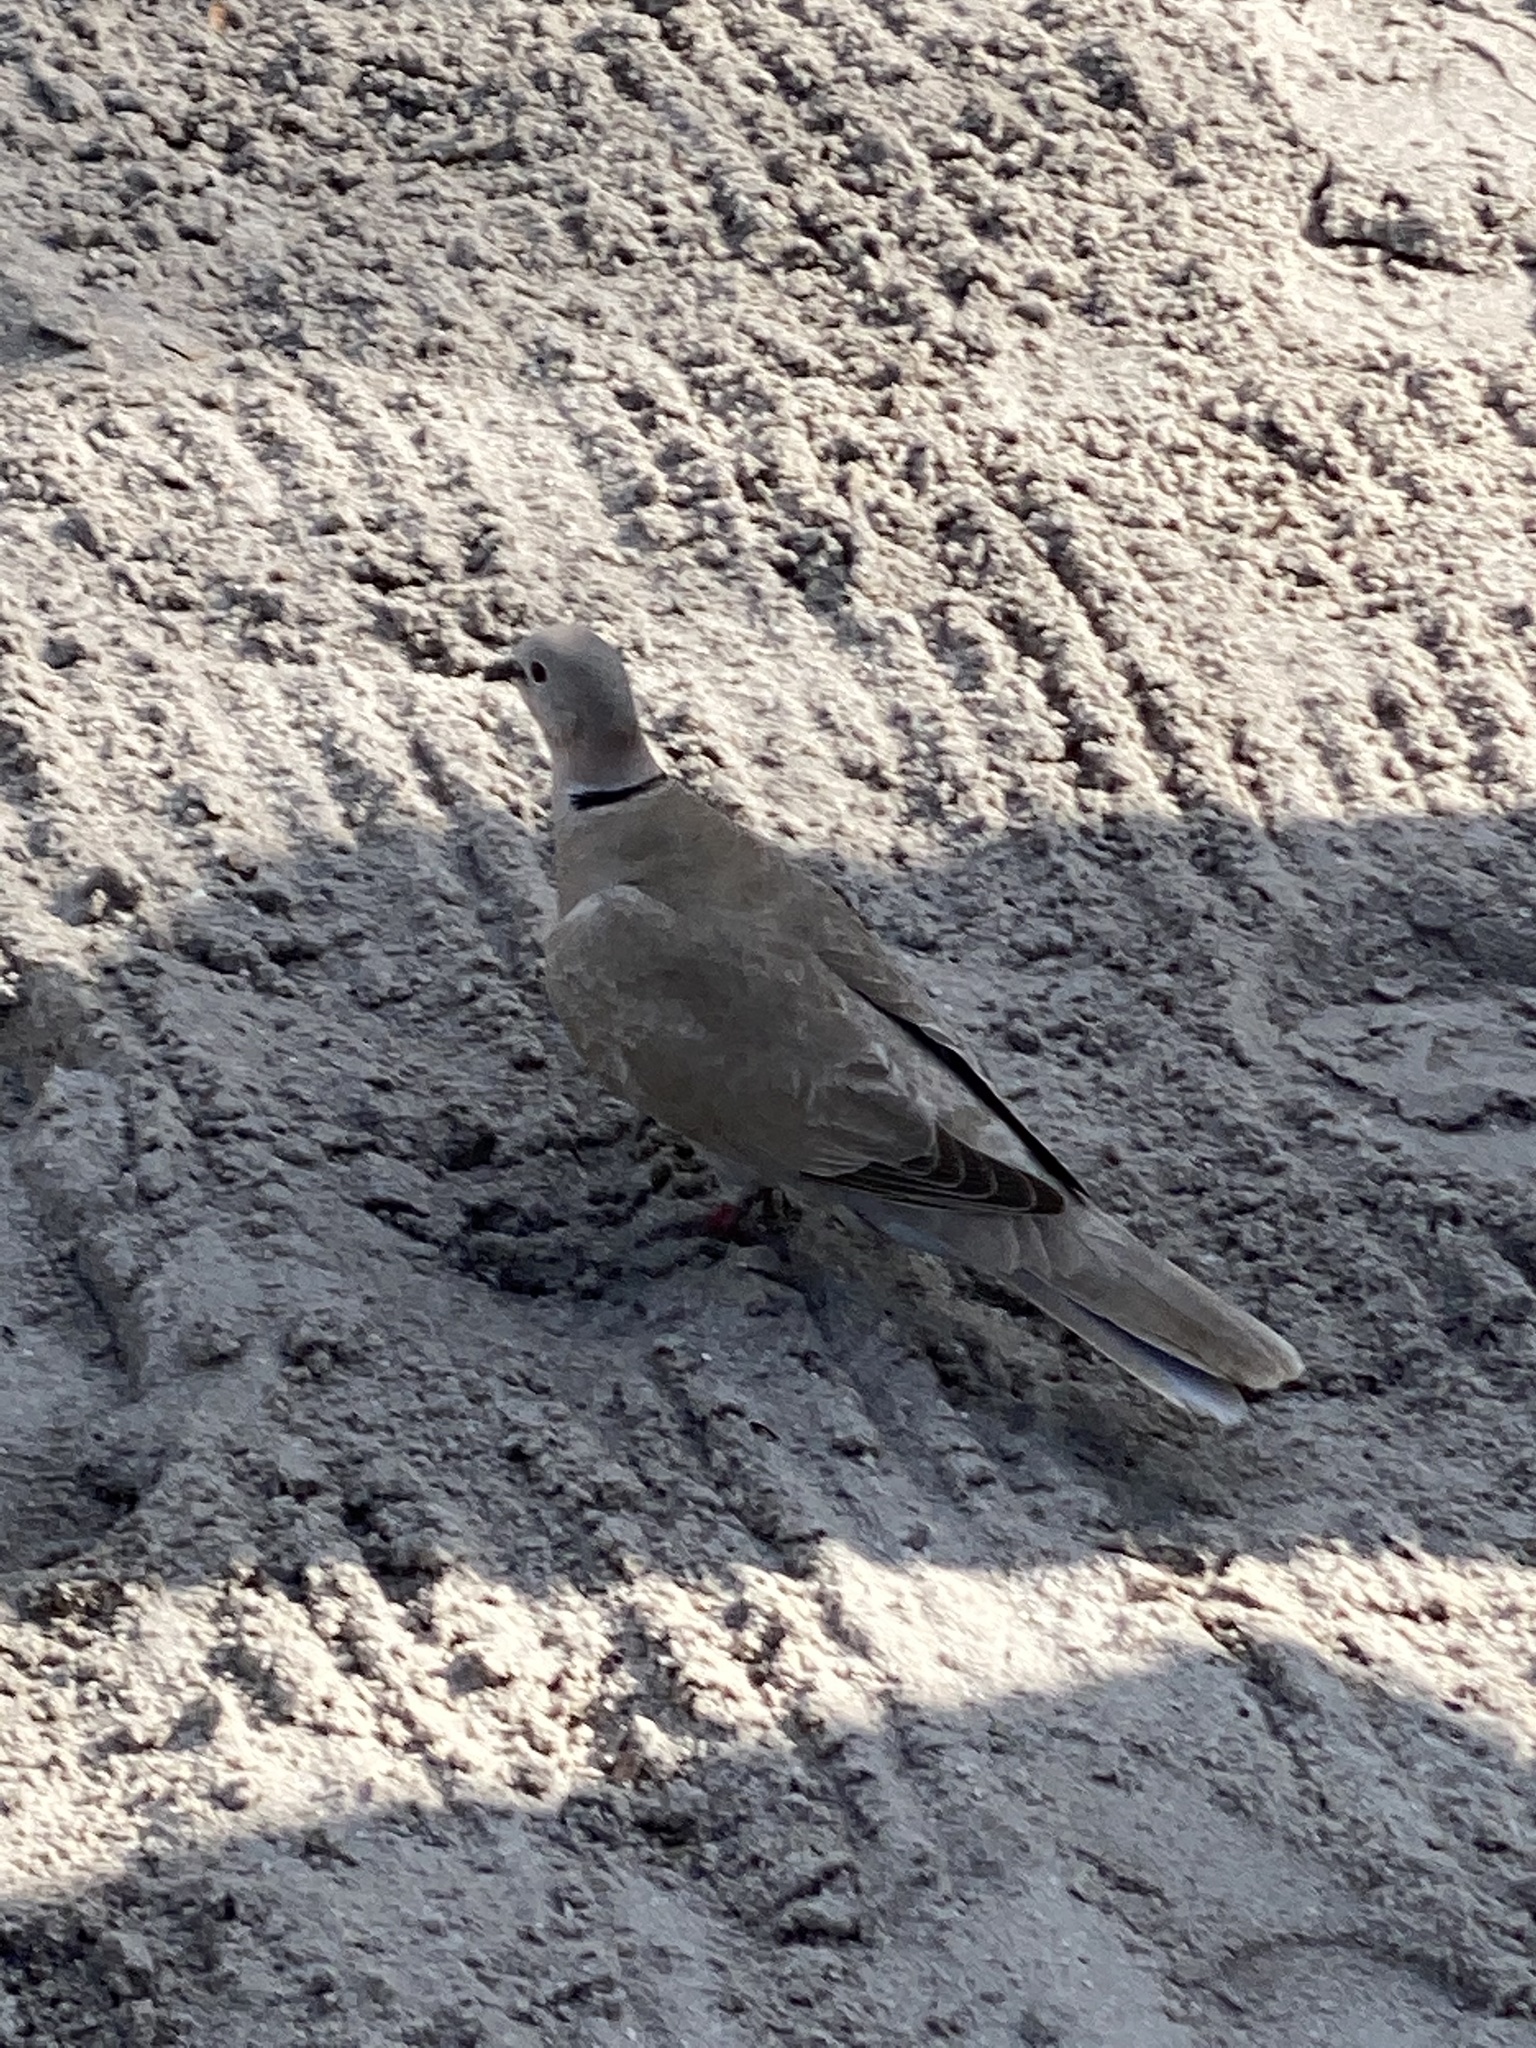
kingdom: Animalia
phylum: Chordata
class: Aves
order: Columbiformes
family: Columbidae
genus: Streptopelia
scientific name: Streptopelia decaocto
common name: Eurasian collared dove
